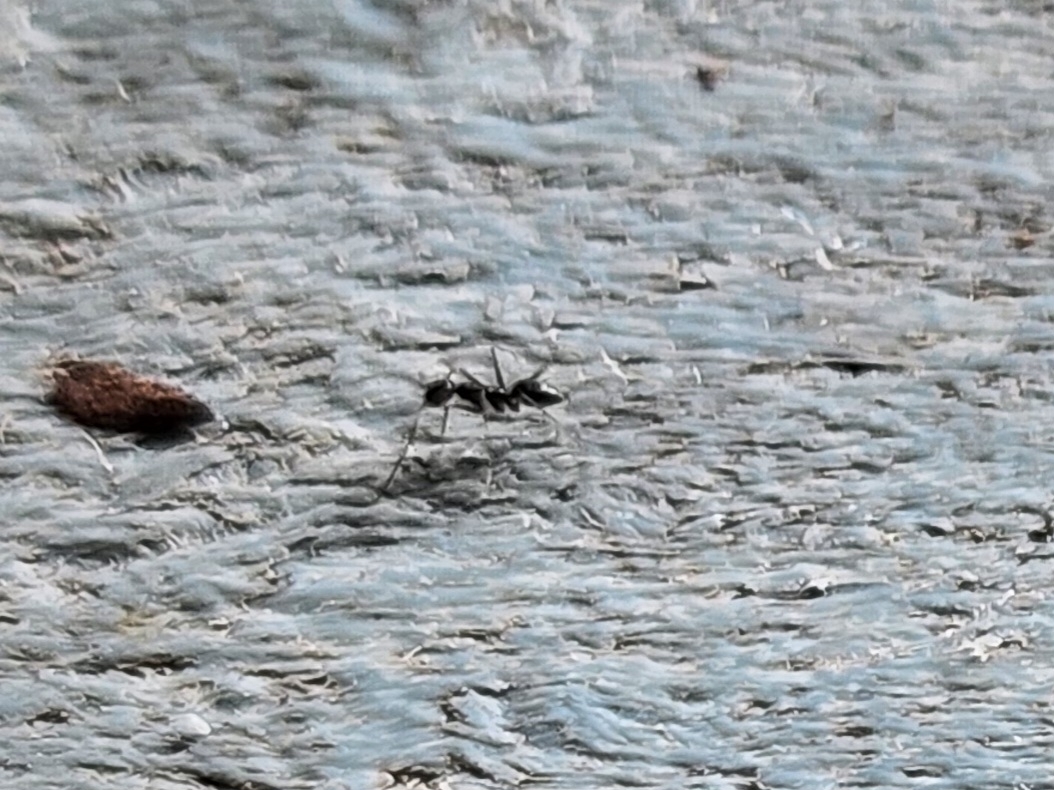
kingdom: Animalia
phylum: Arthropoda
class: Insecta
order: Hymenoptera
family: Formicidae
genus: Paratrechina
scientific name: Paratrechina longicornis
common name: Longhorned crazy ant
